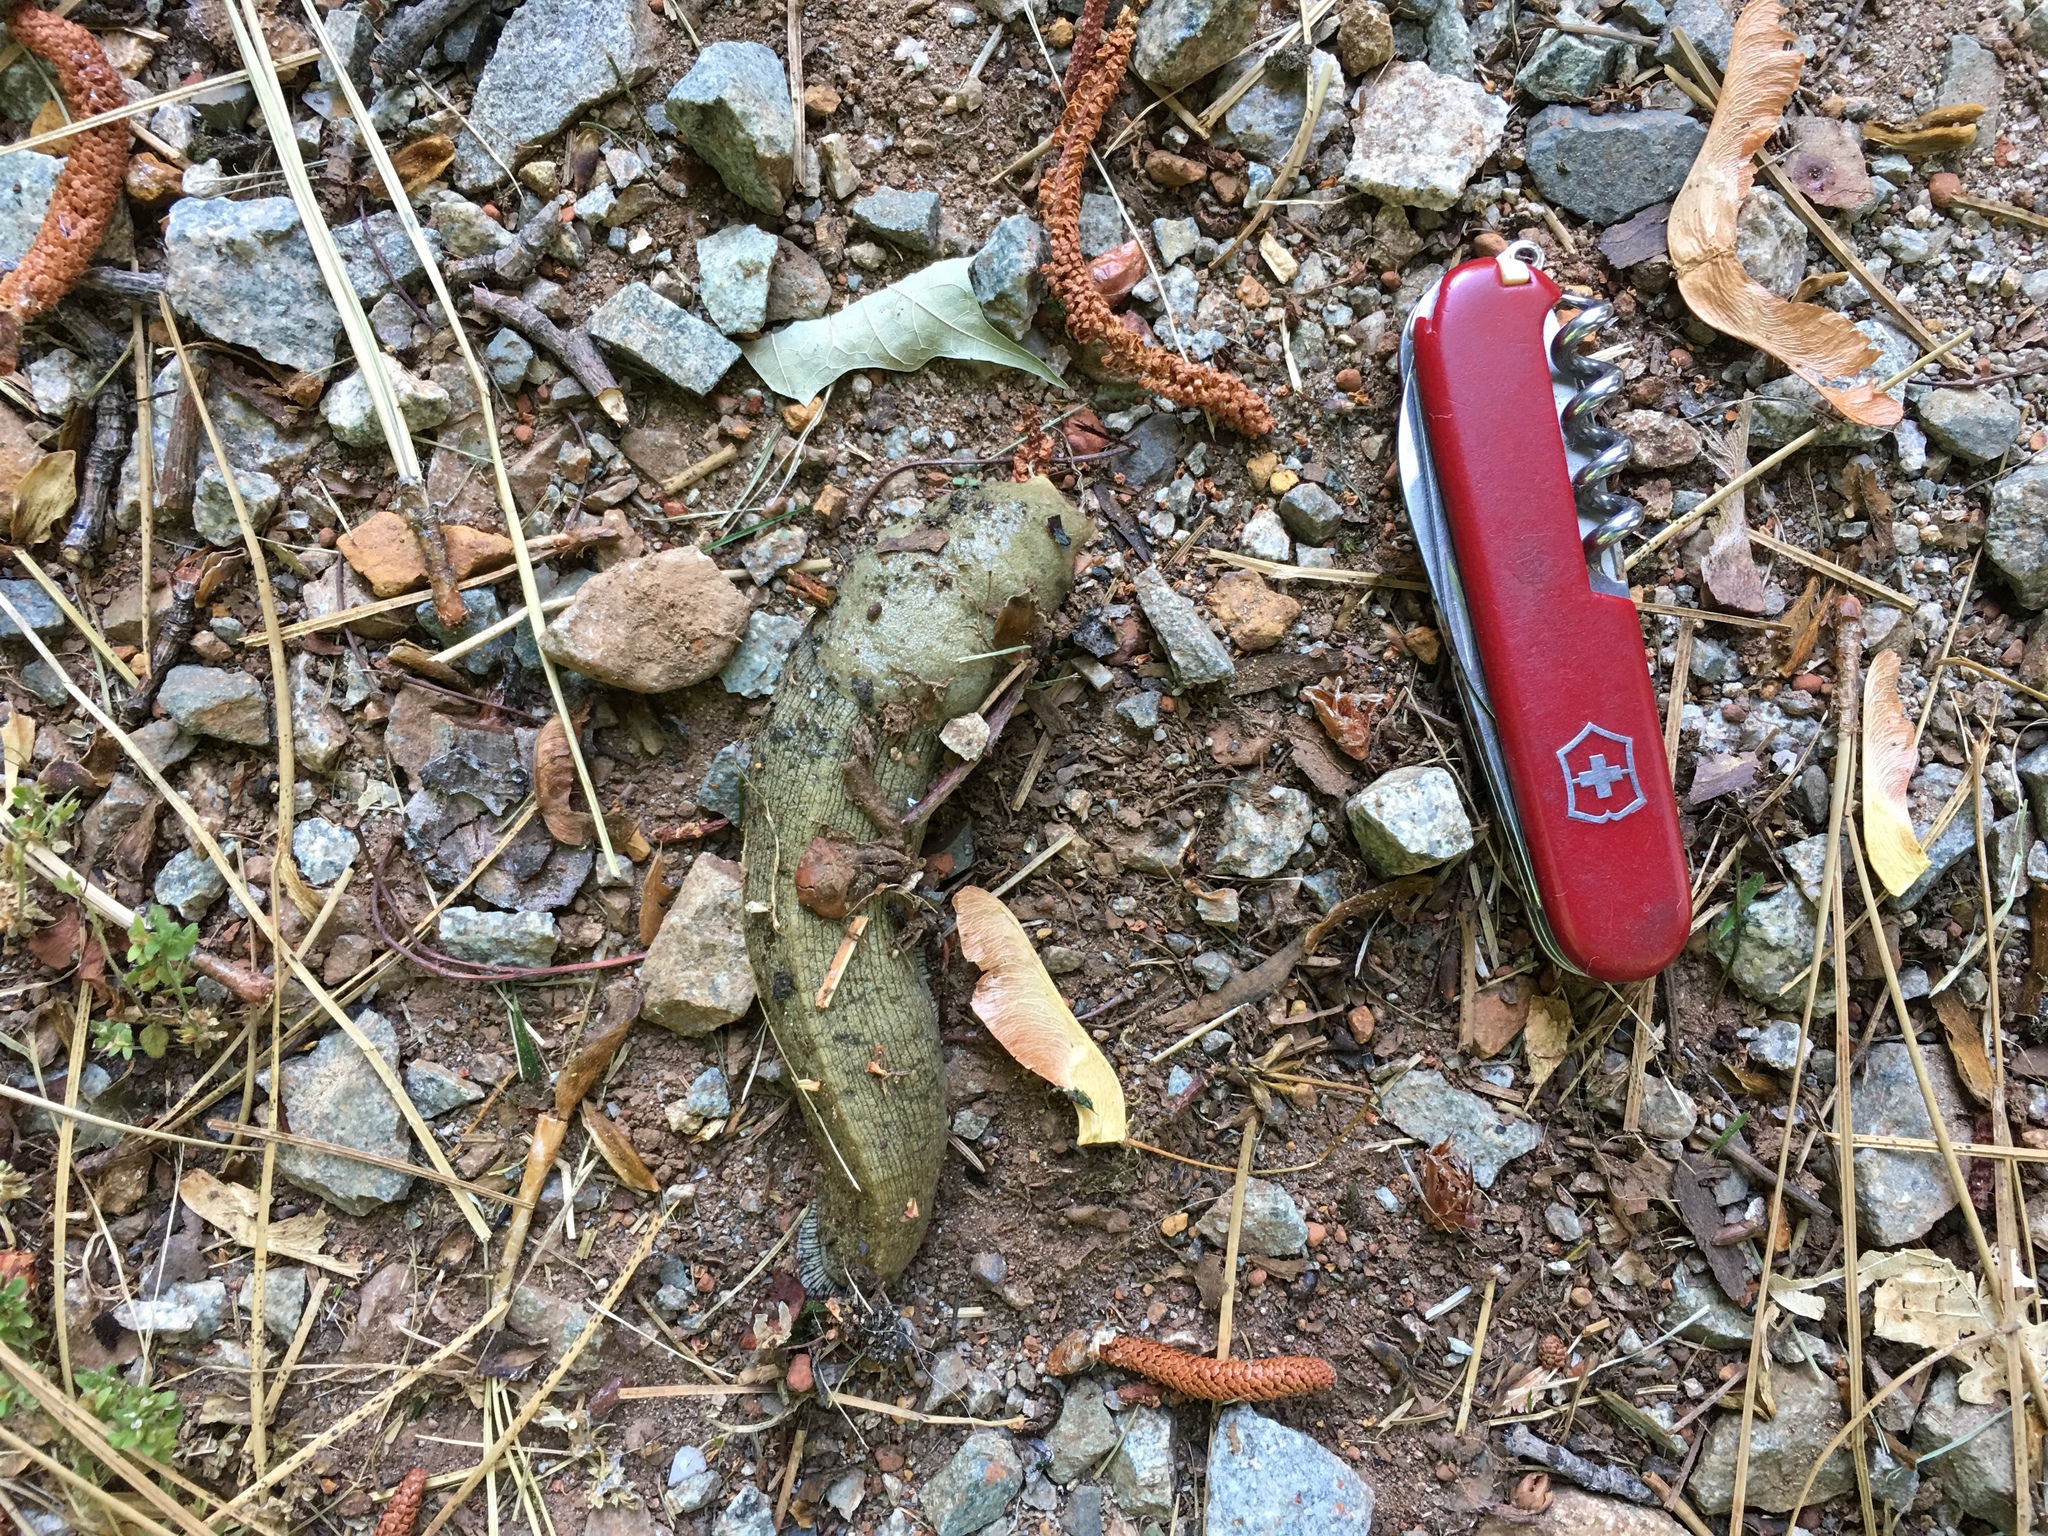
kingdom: Animalia
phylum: Mollusca
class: Gastropoda
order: Stylommatophora
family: Ariolimacidae
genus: Ariolimax
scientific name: Ariolimax buttoni
